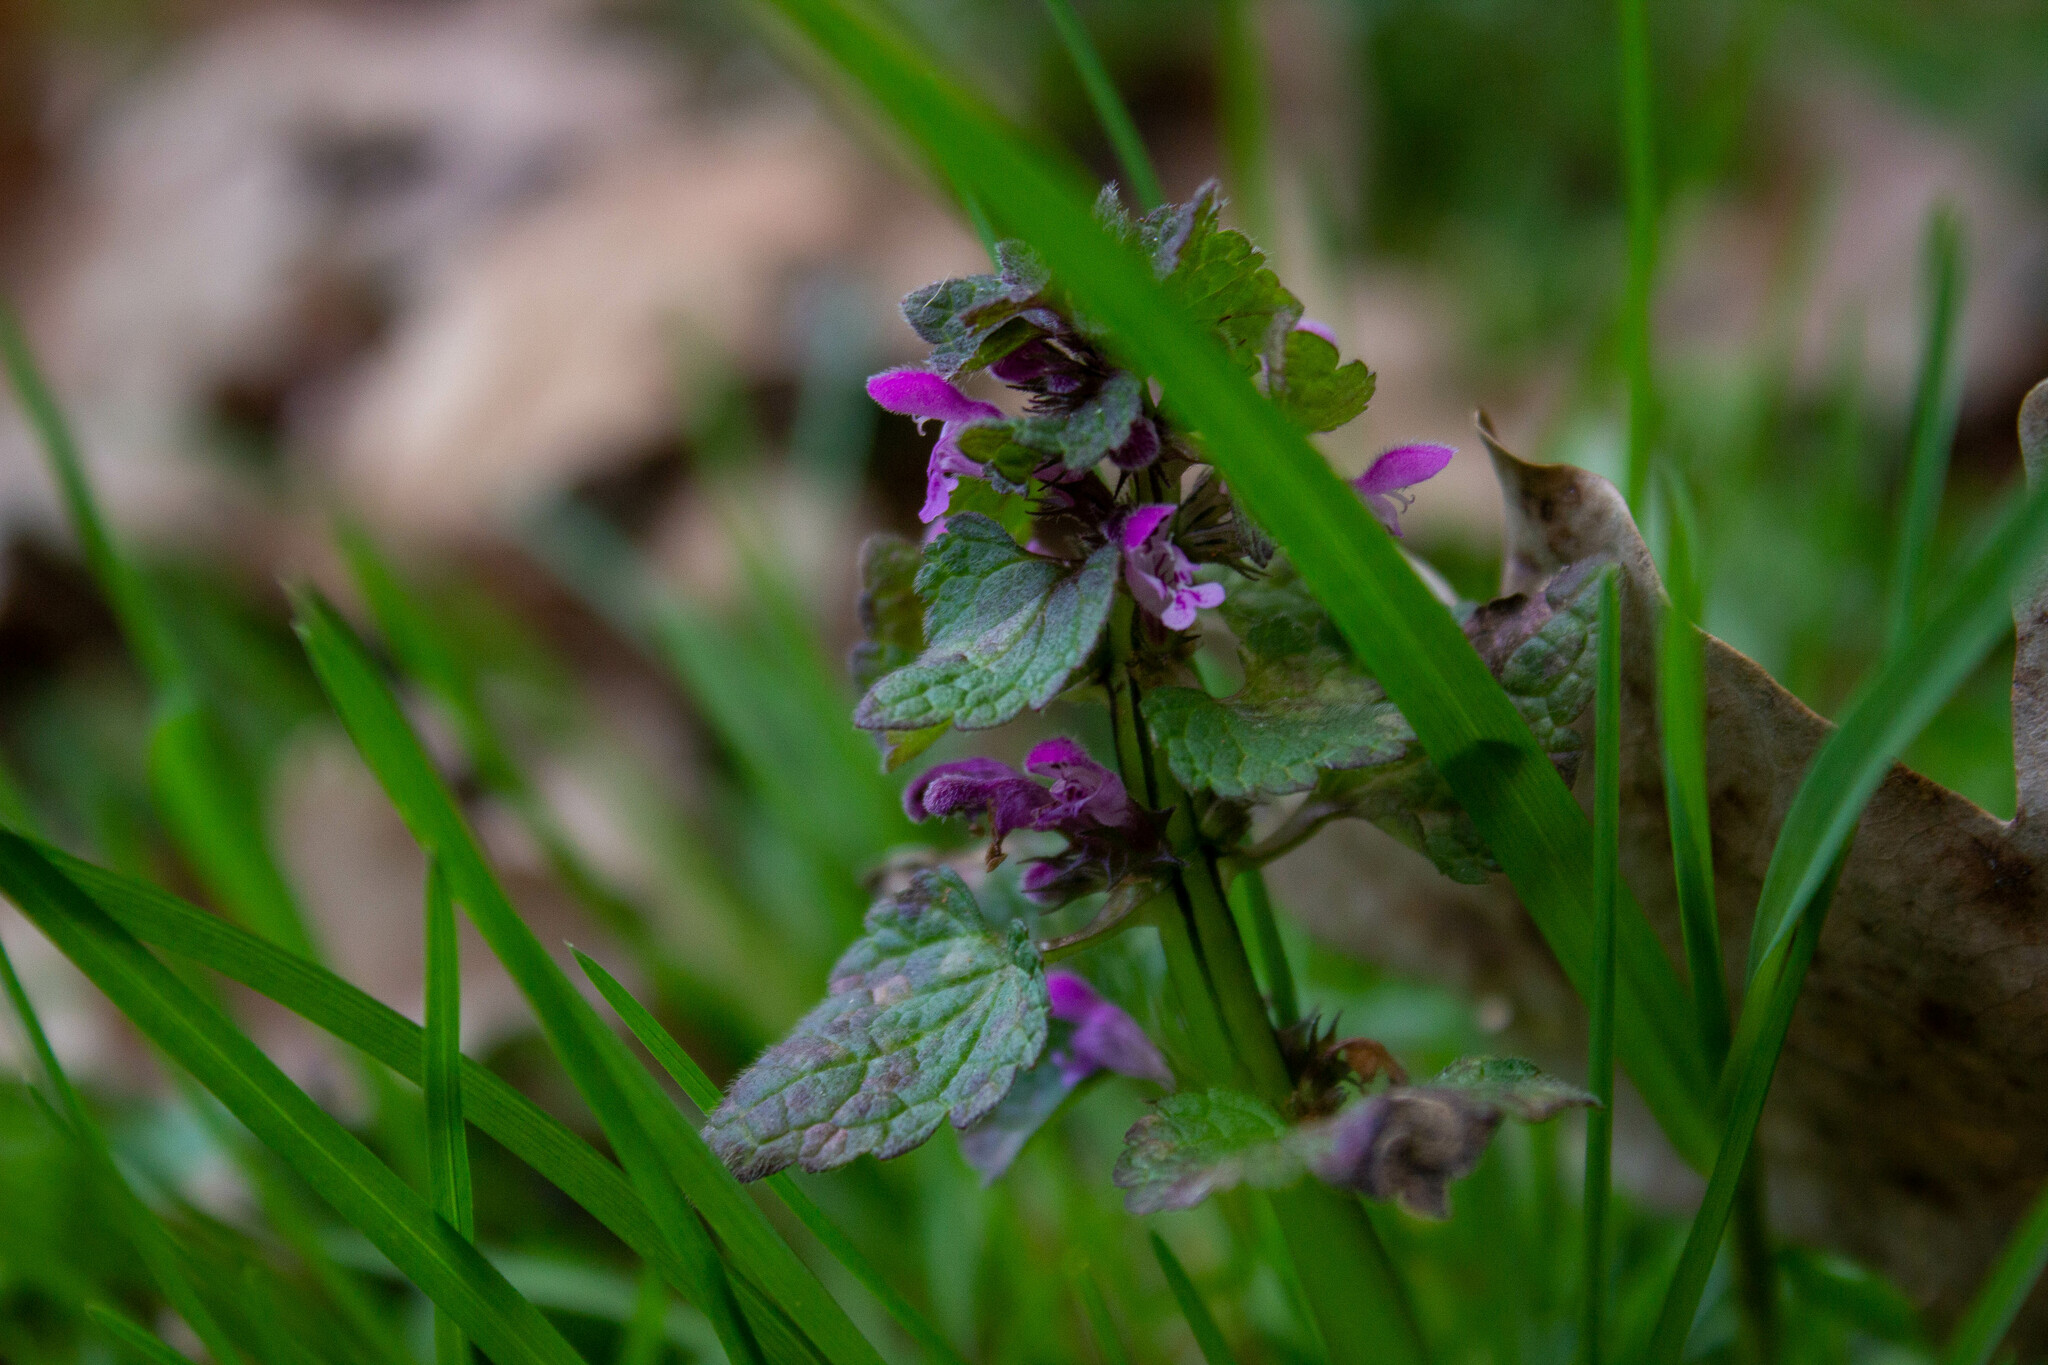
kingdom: Plantae
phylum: Tracheophyta
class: Magnoliopsida
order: Lamiales
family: Lamiaceae
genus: Lamium
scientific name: Lamium purpureum
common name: Red dead-nettle
